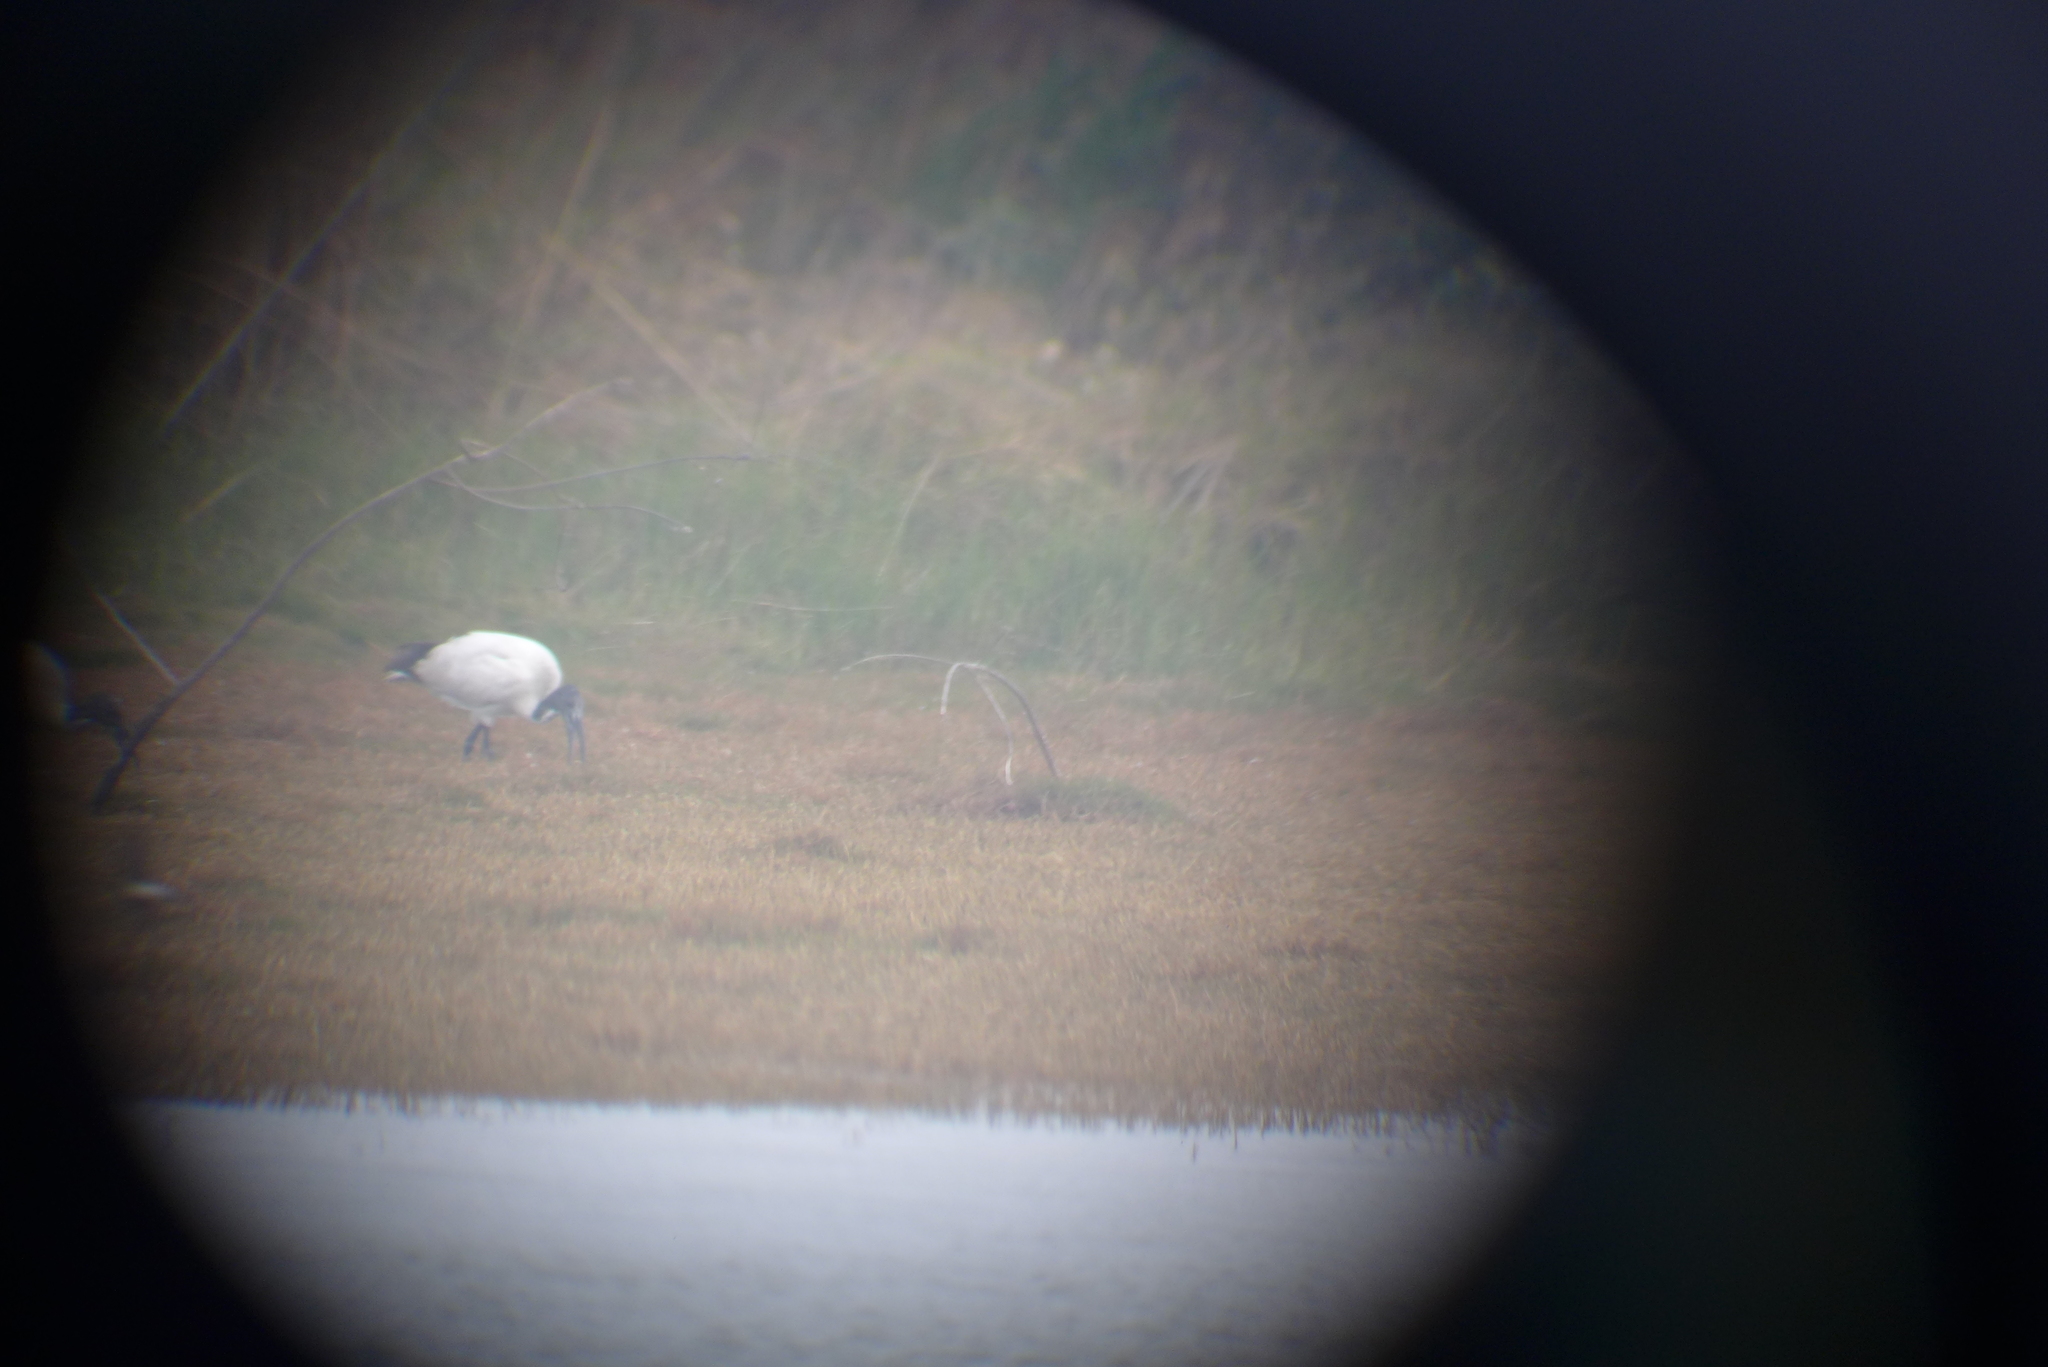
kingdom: Animalia
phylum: Chordata
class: Aves
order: Pelecaniformes
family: Threskiornithidae
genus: Threskiornis
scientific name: Threskiornis aethiopicus
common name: Sacred ibis
